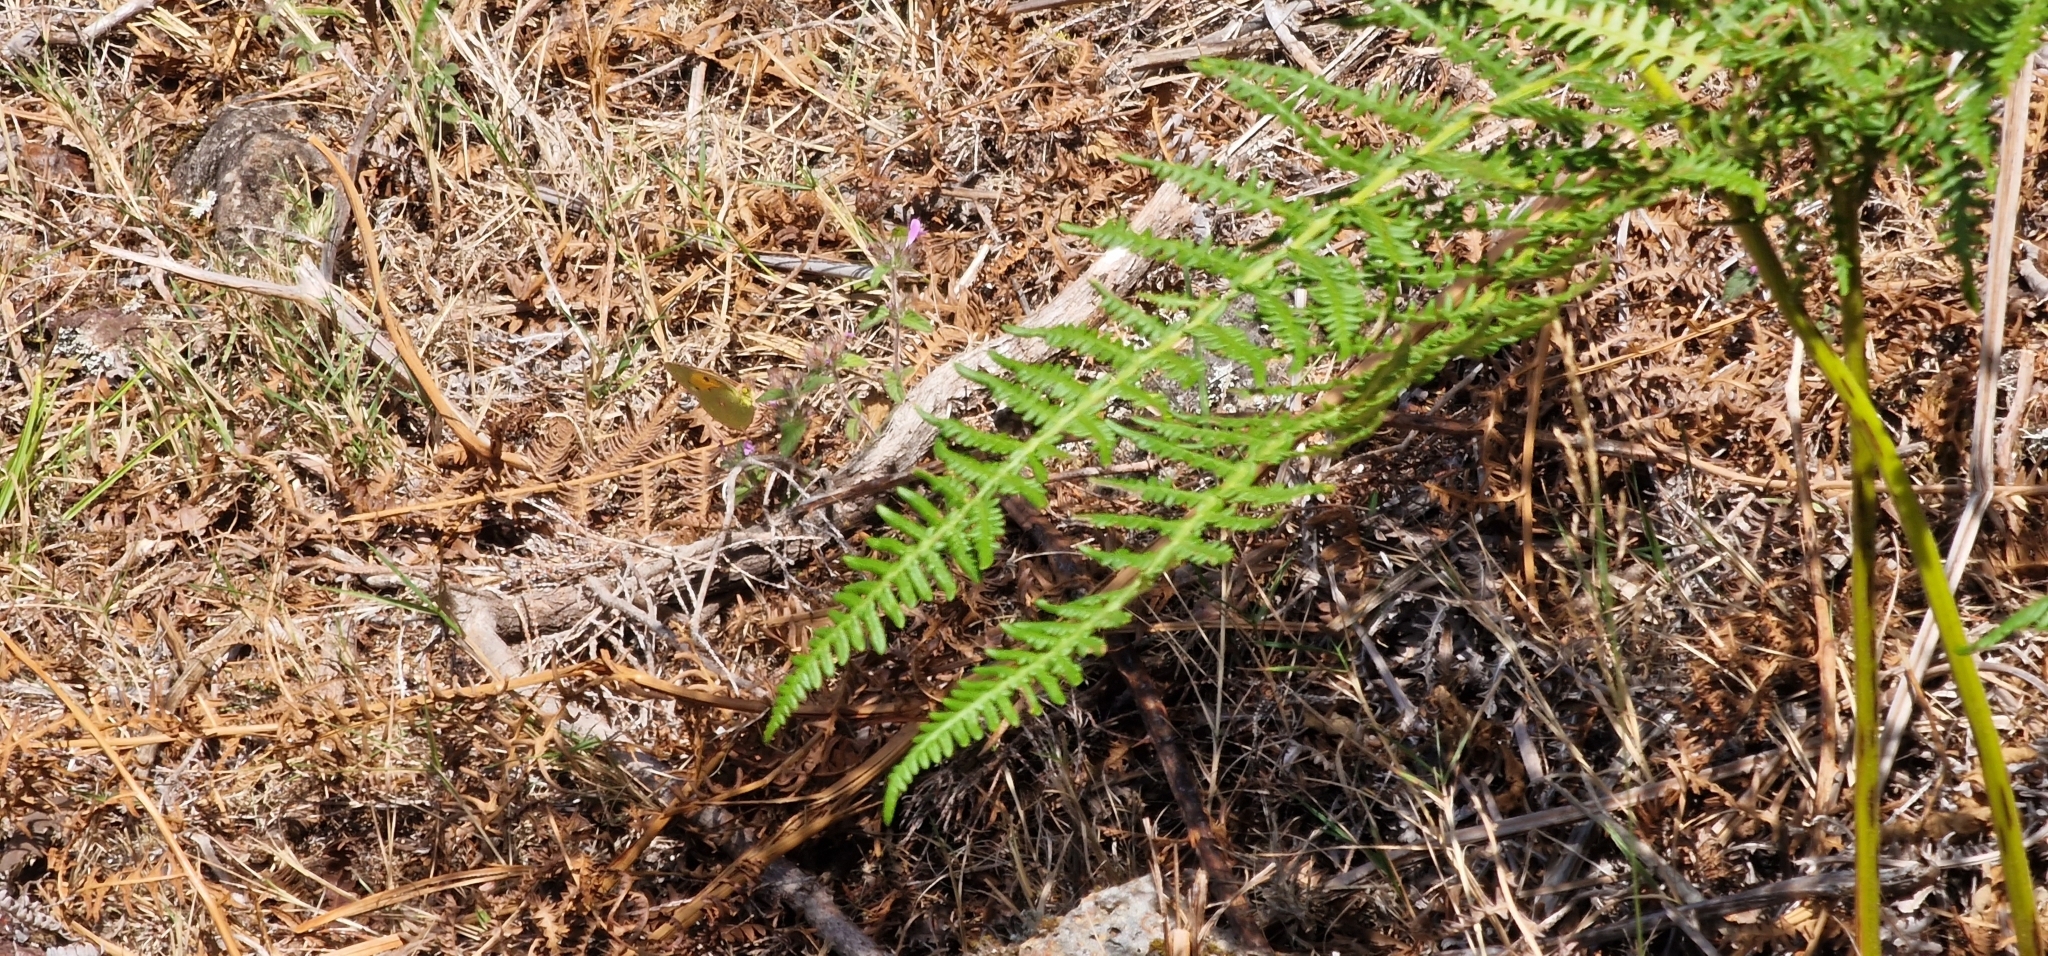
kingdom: Animalia
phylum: Arthropoda
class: Insecta
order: Lepidoptera
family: Pieridae
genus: Colias
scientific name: Colias croceus
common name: Clouded yellow
